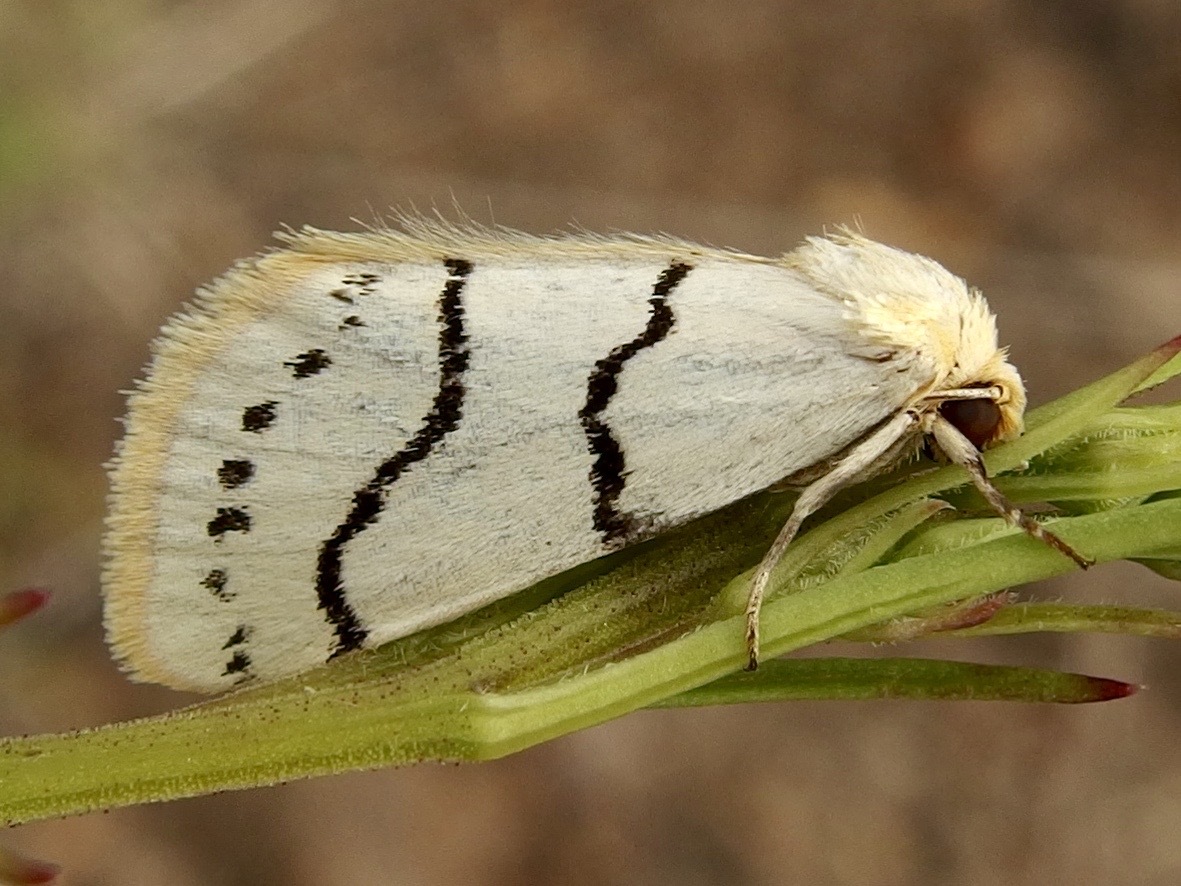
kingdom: Animalia
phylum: Arthropoda
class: Insecta
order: Lepidoptera
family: Noctuidae
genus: Lineostriastiria
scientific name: Lineostriastiria sexseriata
